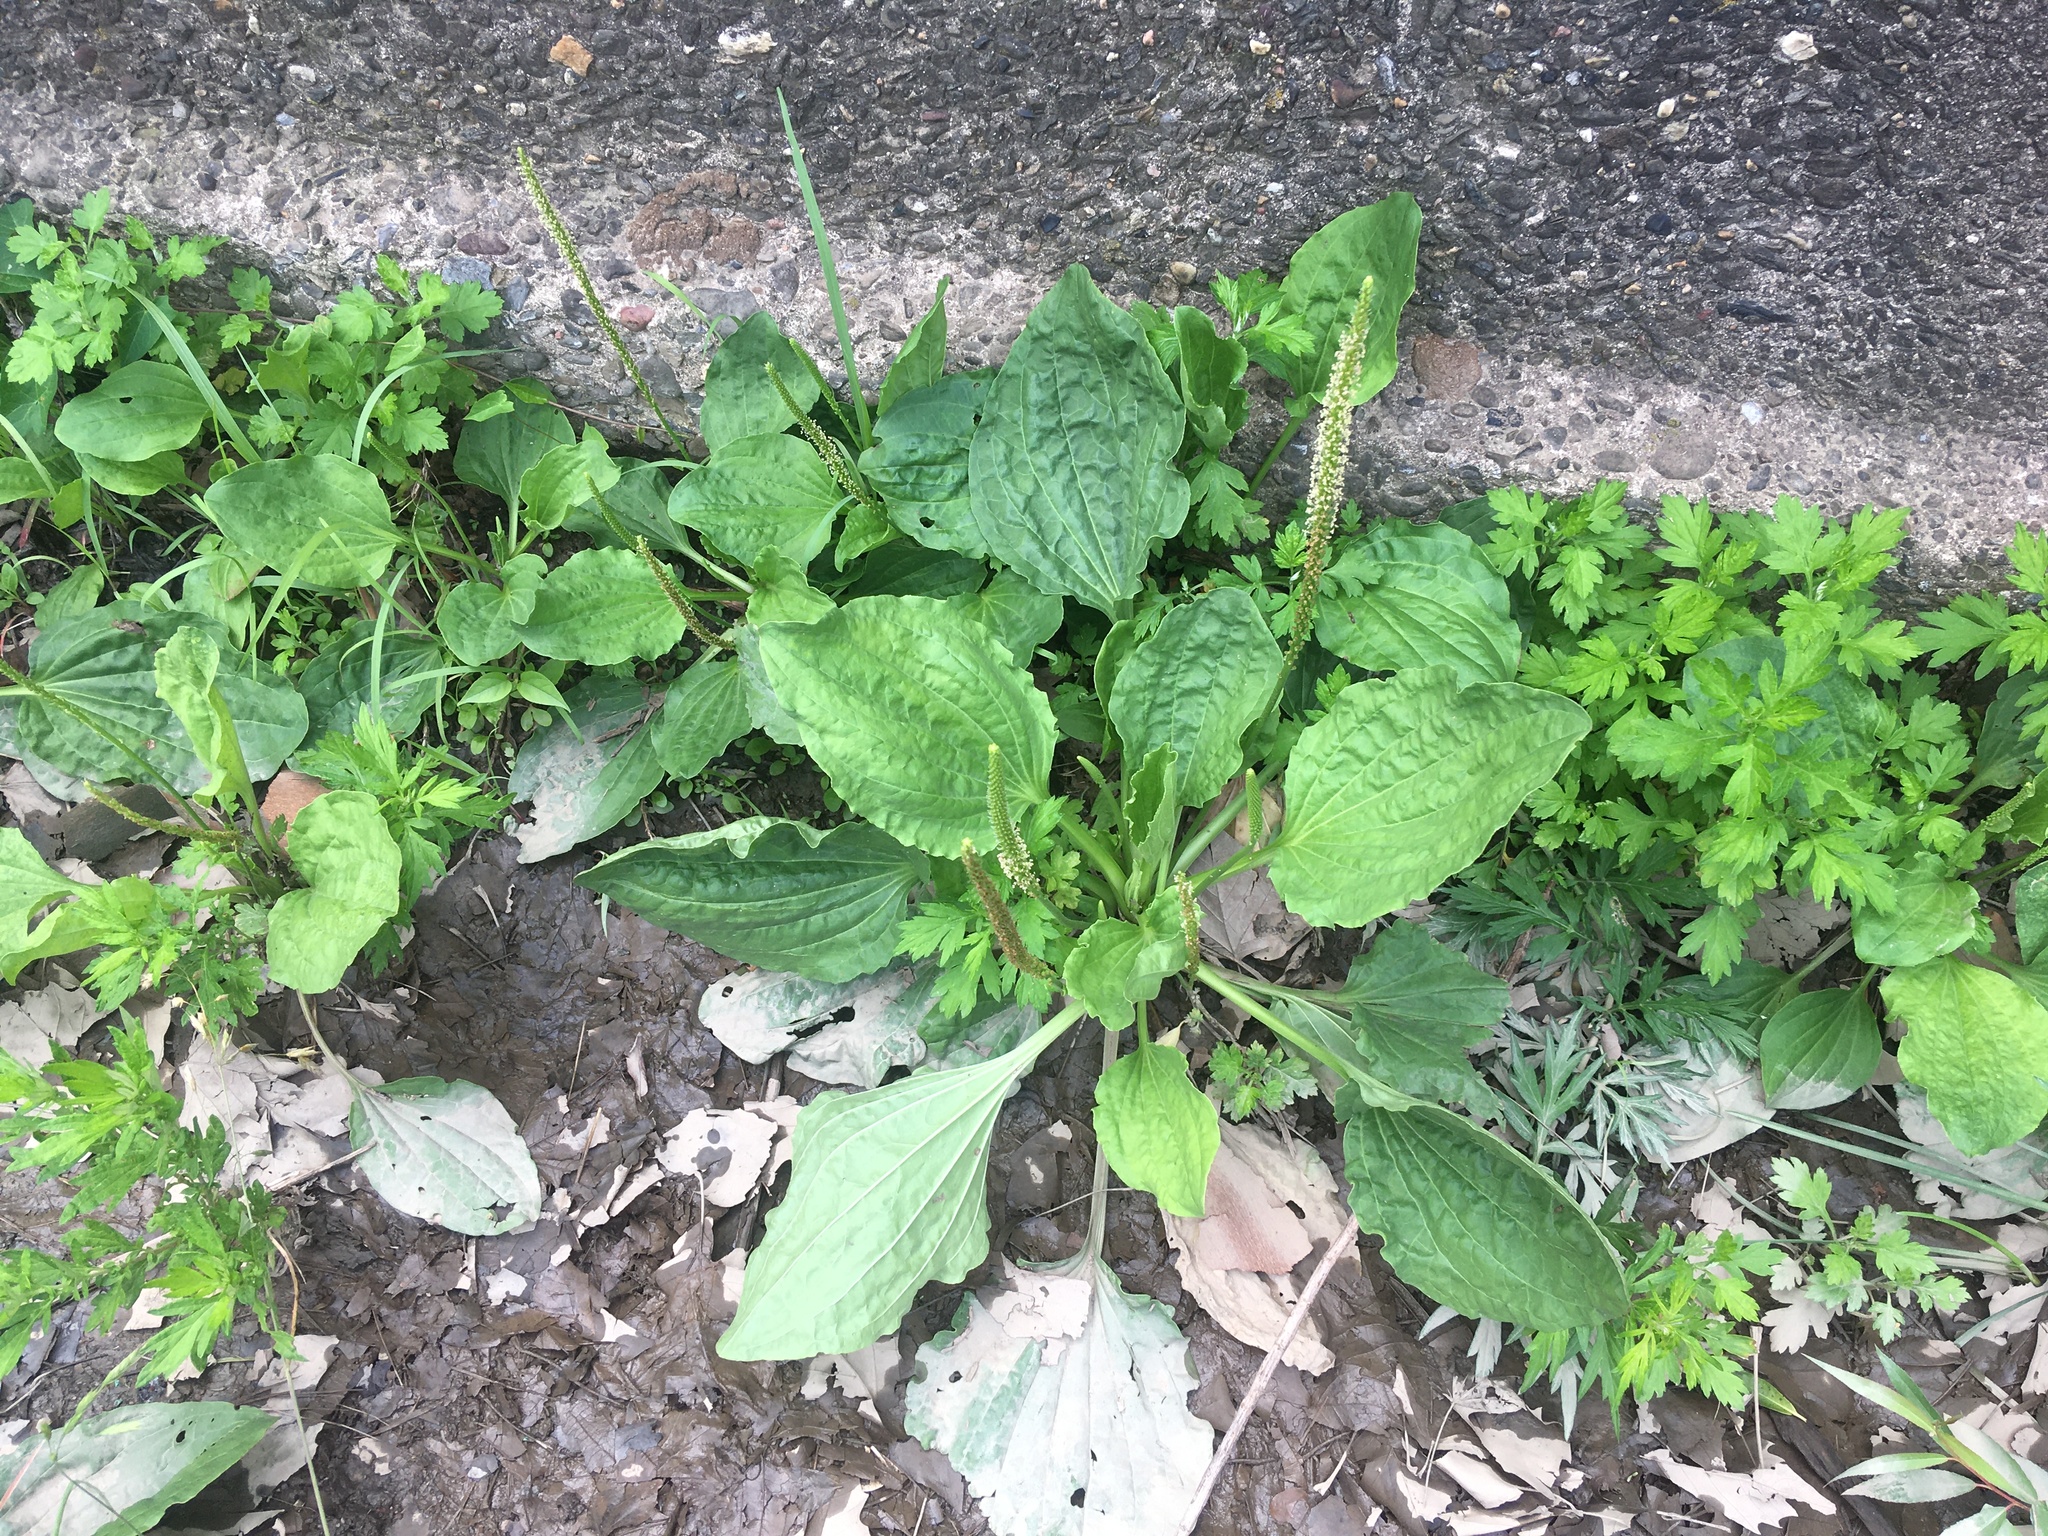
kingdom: Plantae
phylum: Tracheophyta
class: Magnoliopsida
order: Lamiales
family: Plantaginaceae
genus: Plantago
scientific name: Plantago major
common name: Common plantain
